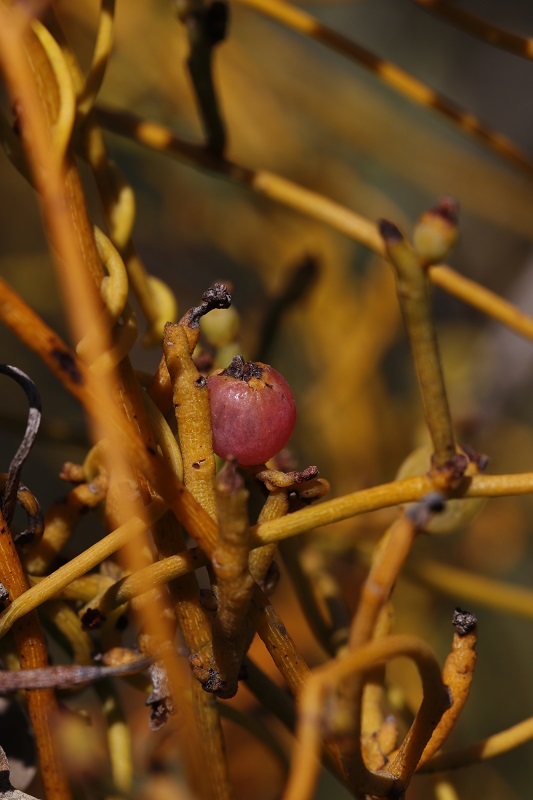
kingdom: Plantae
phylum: Tracheophyta
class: Magnoliopsida
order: Laurales
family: Lauraceae
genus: Cassytha
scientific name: Cassytha ciliolata
